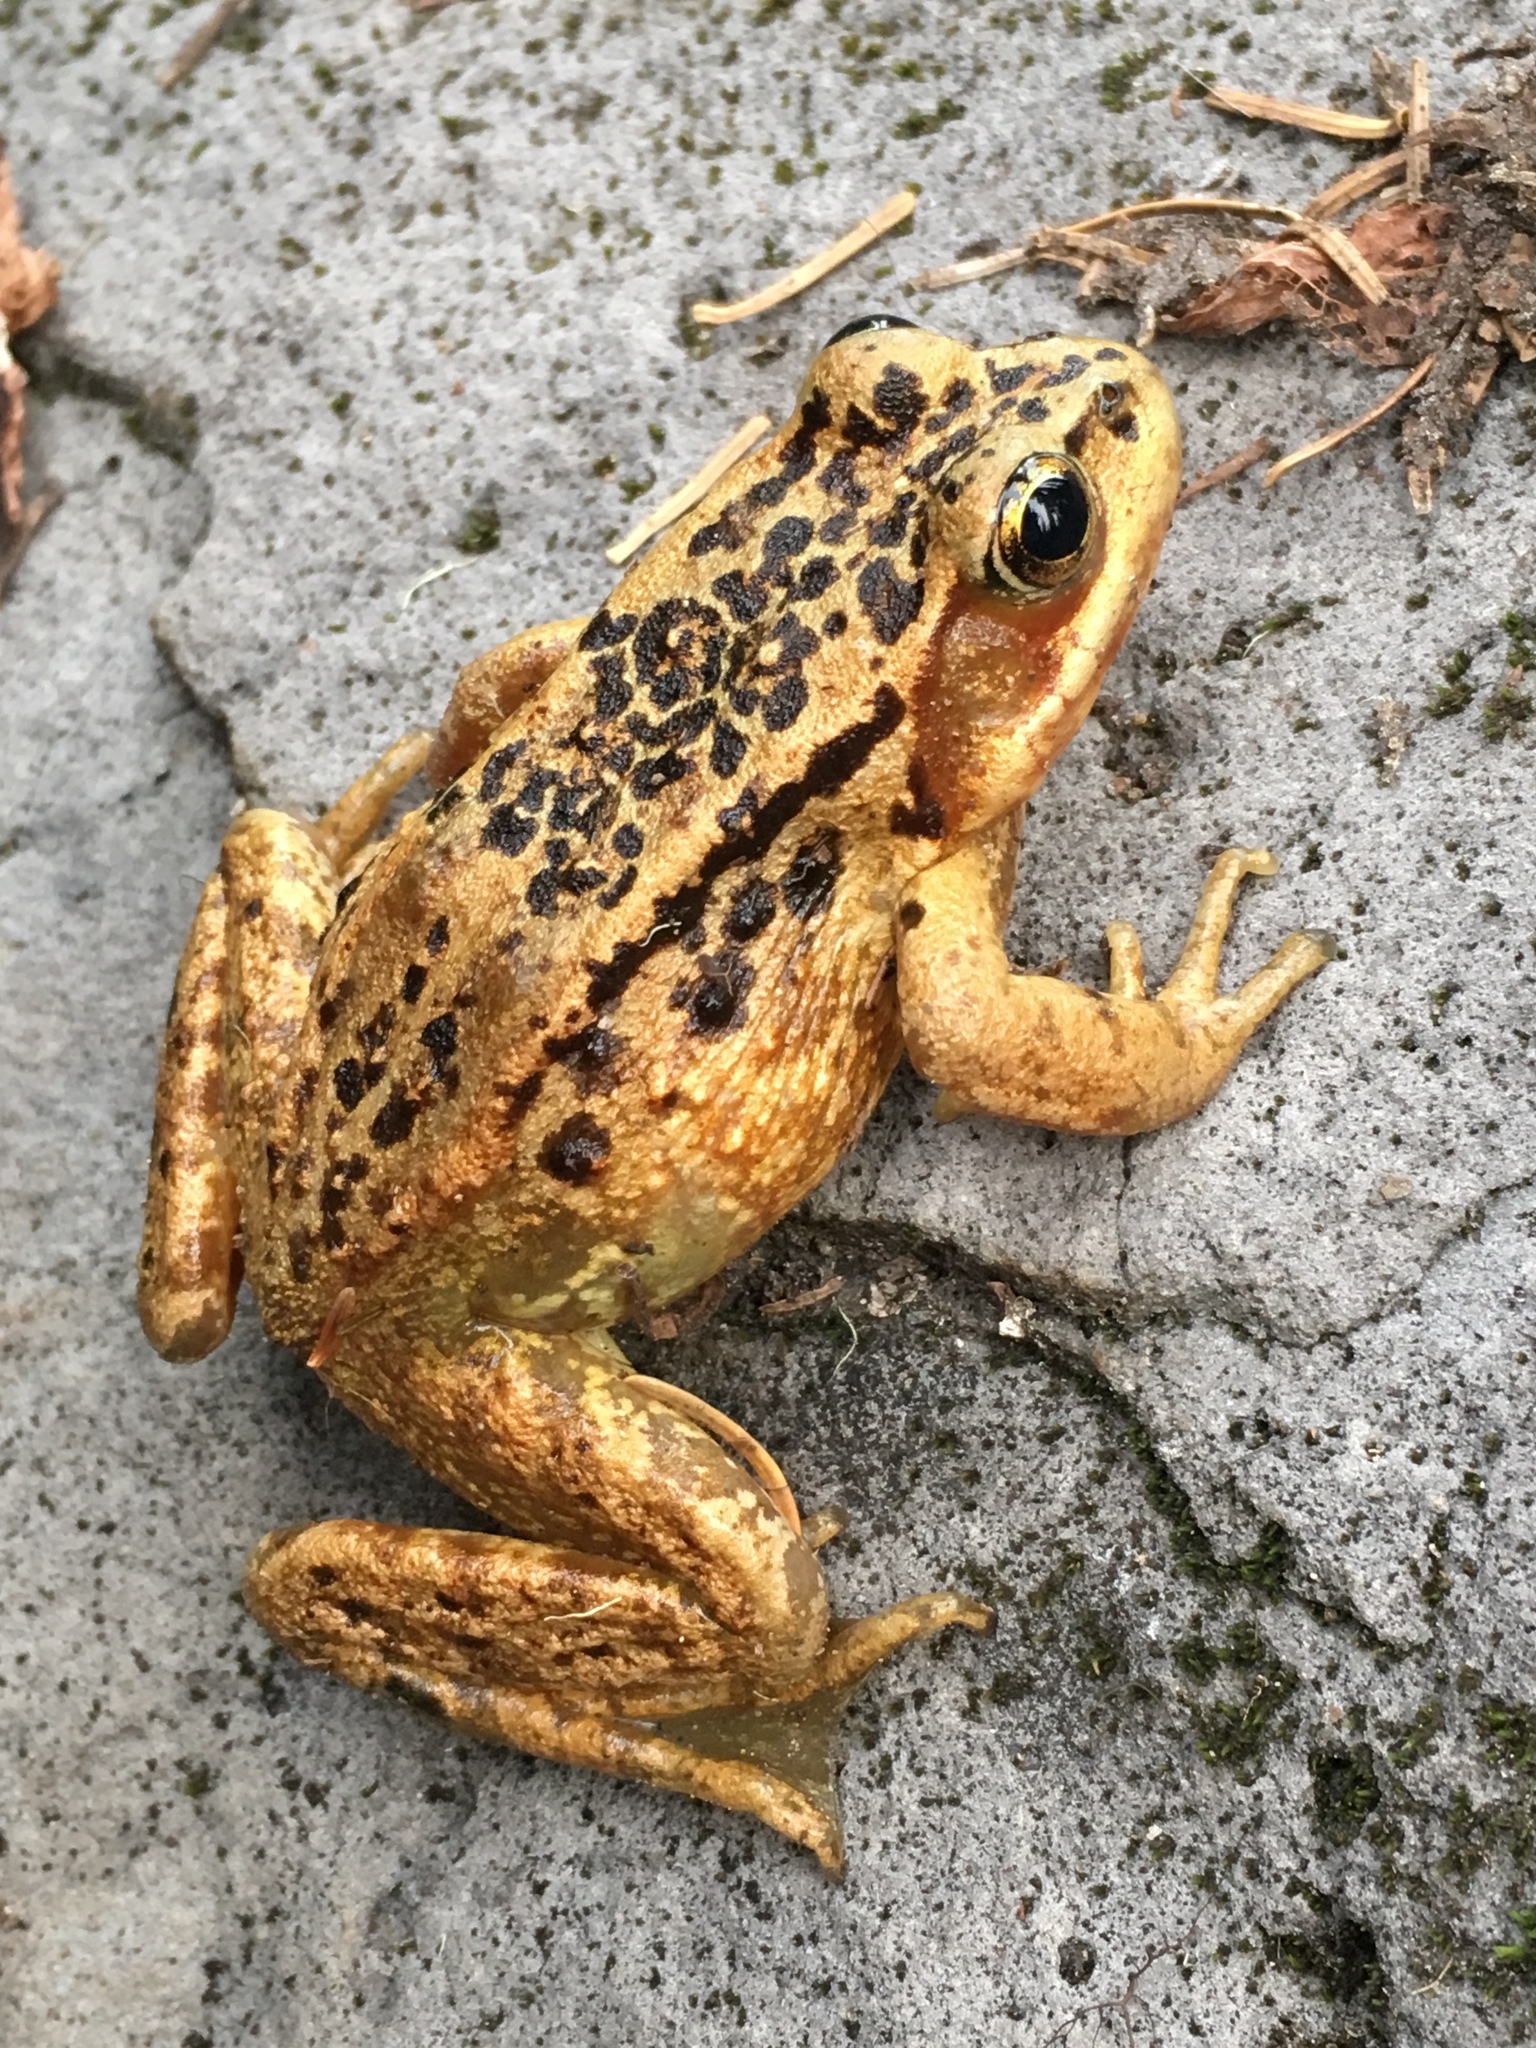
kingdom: Animalia
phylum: Chordata
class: Amphibia
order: Anura
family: Ranidae
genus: Rana
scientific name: Rana cascadae
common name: Cascades frog
